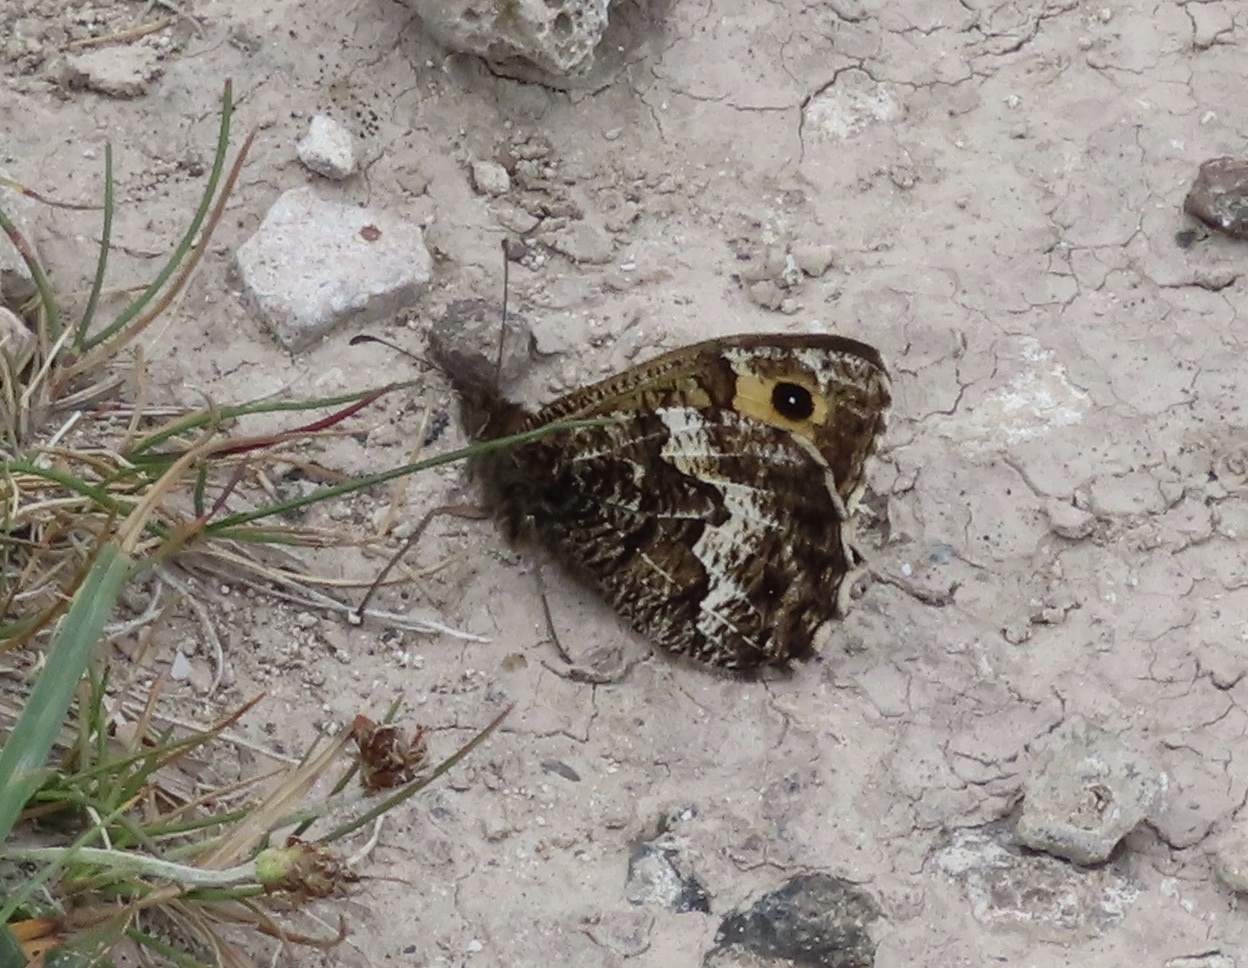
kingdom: Animalia
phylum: Arthropoda
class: Insecta
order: Lepidoptera
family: Nymphalidae
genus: Hipparchia
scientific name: Hipparchia semele
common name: Grayling
